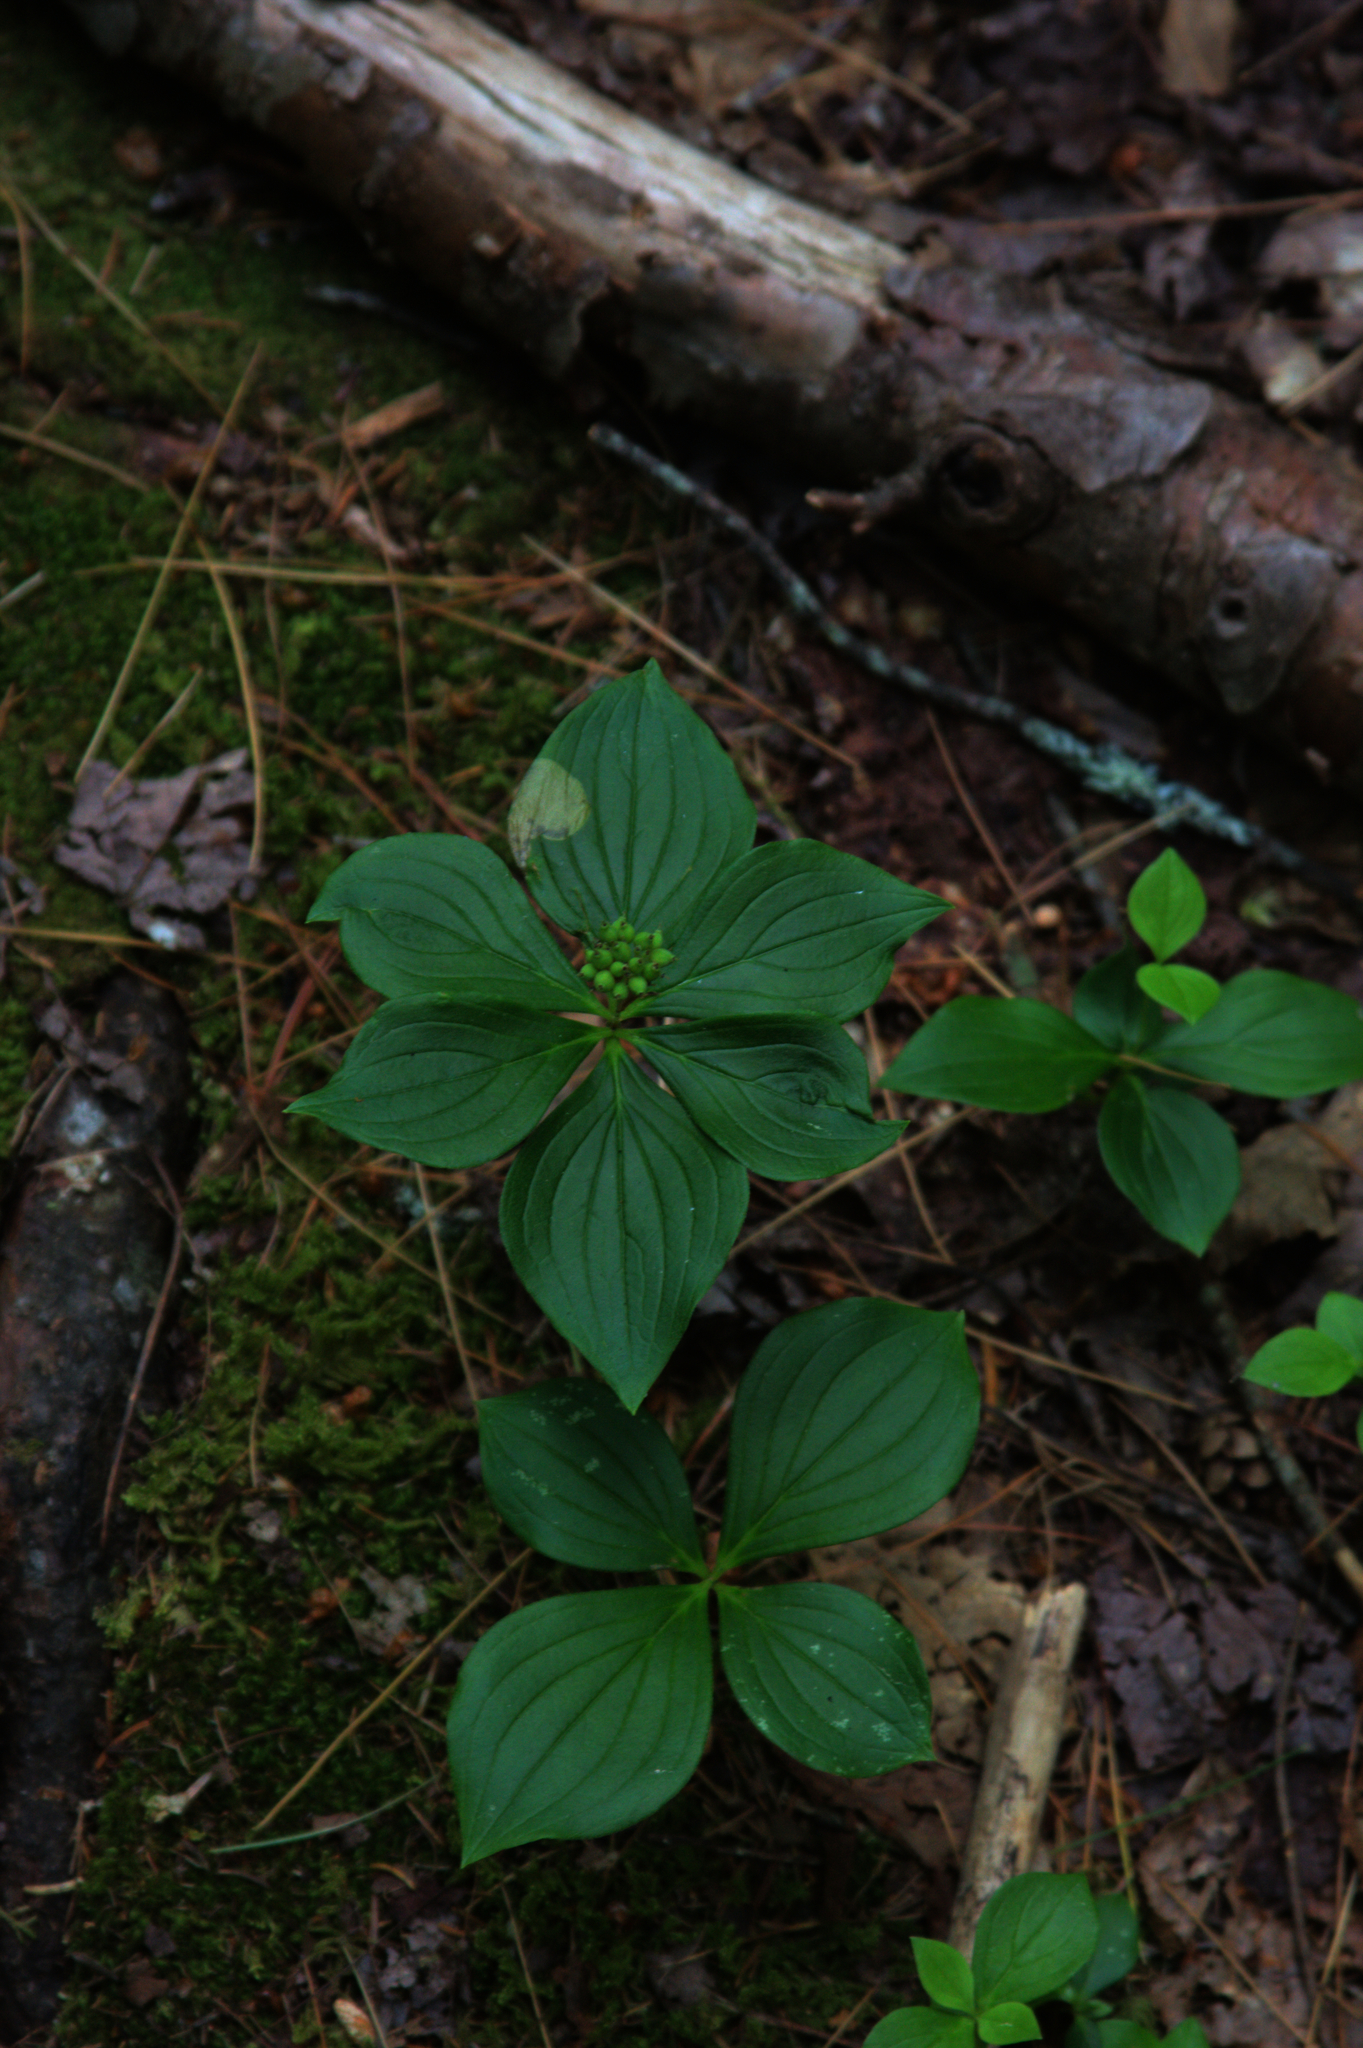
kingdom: Plantae
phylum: Tracheophyta
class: Magnoliopsida
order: Cornales
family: Cornaceae
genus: Cornus
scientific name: Cornus canadensis
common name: Creeping dogwood
